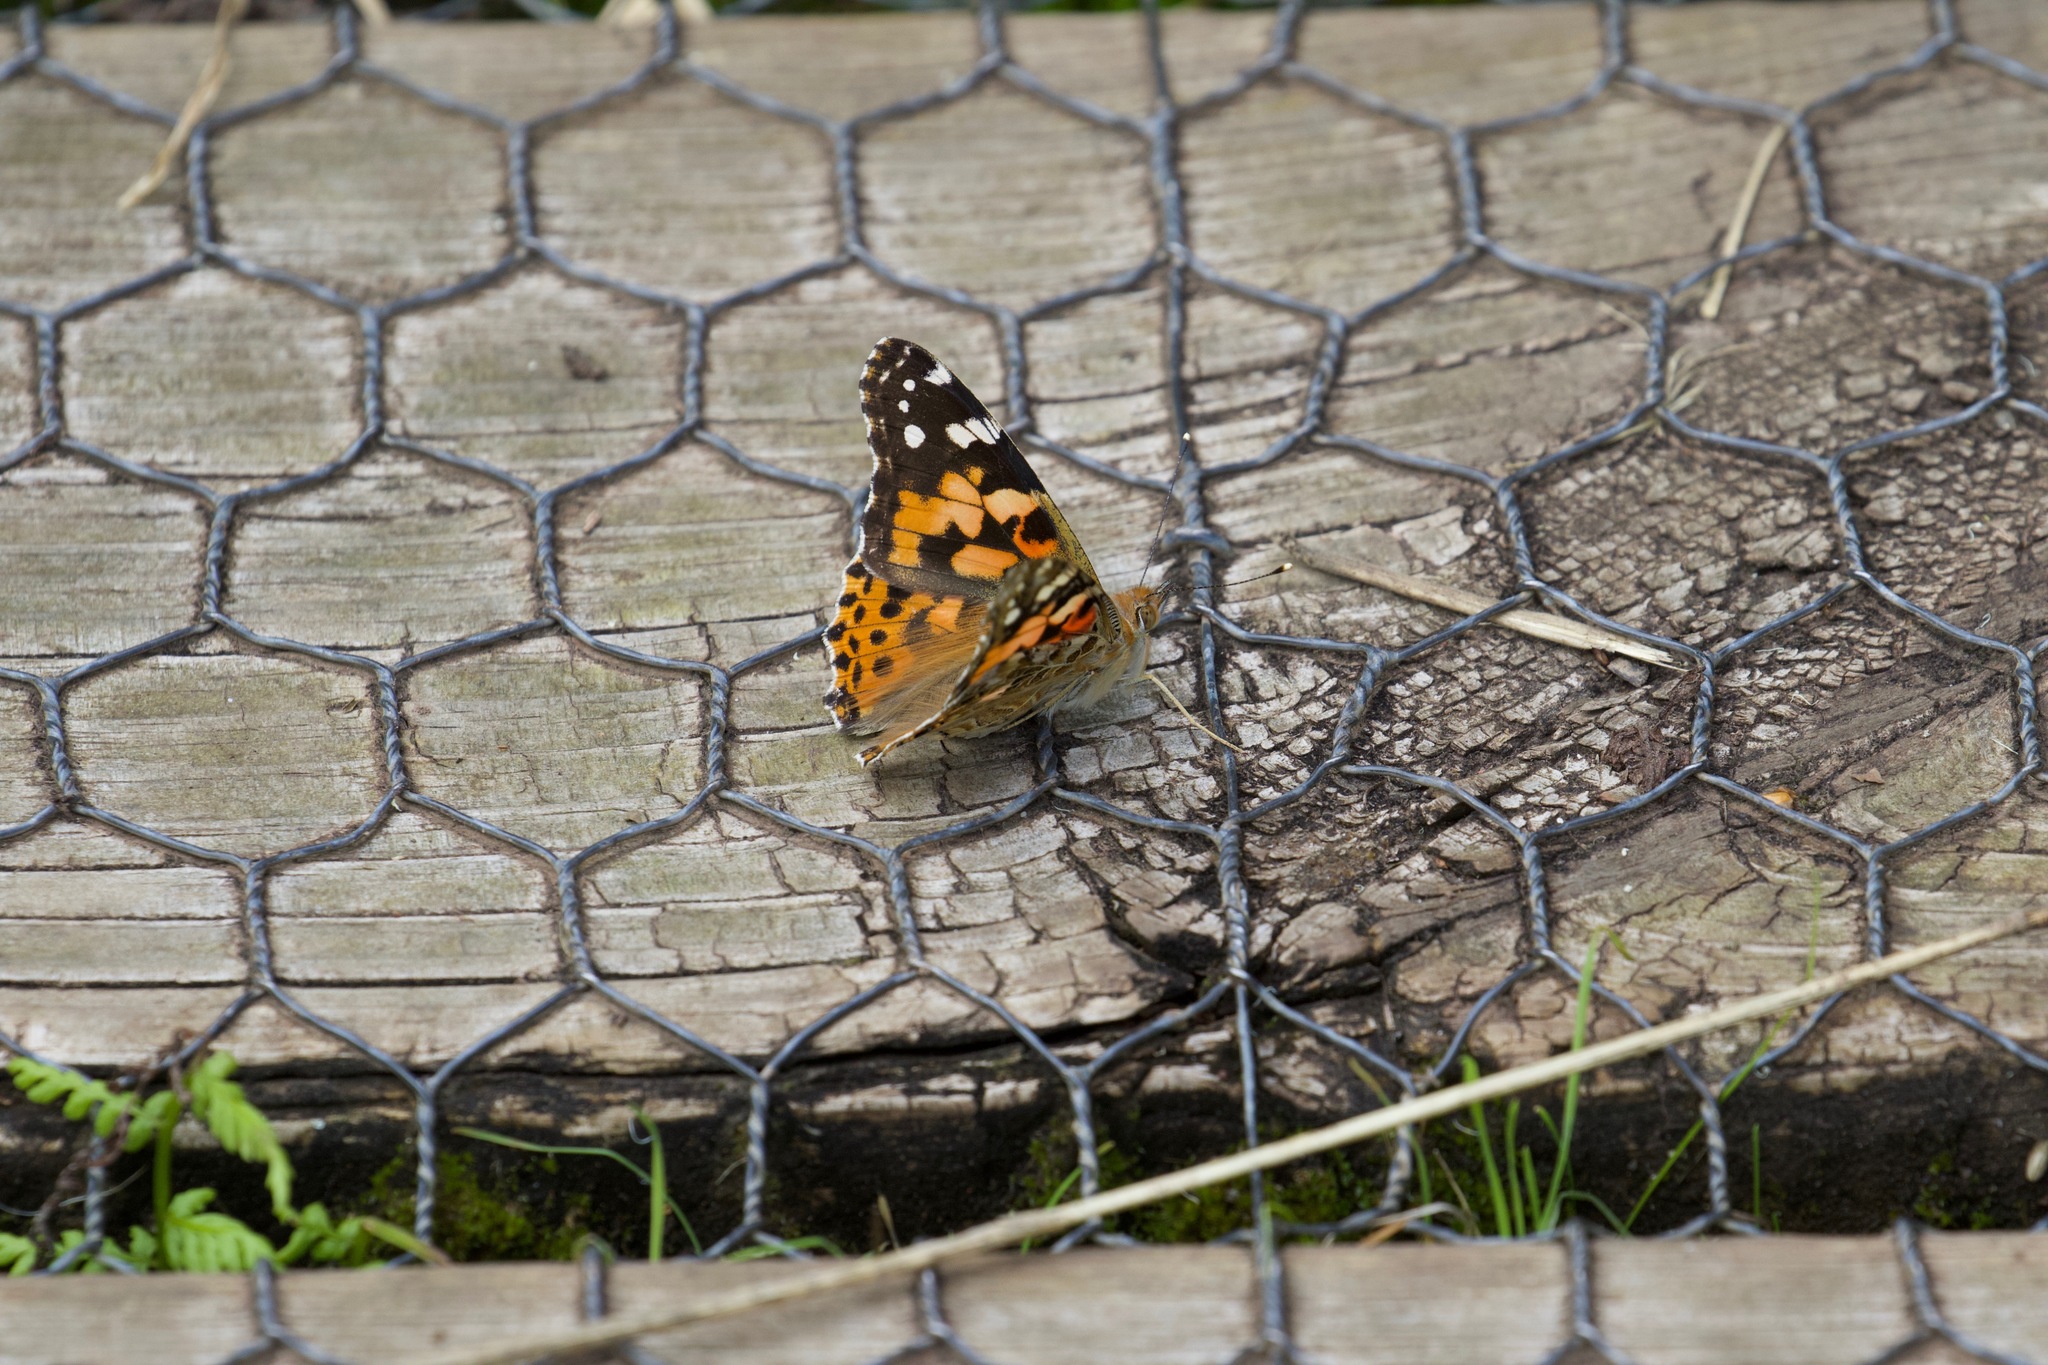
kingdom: Animalia
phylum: Arthropoda
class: Insecta
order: Lepidoptera
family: Nymphalidae
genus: Vanessa
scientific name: Vanessa cardui
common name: Painted lady
